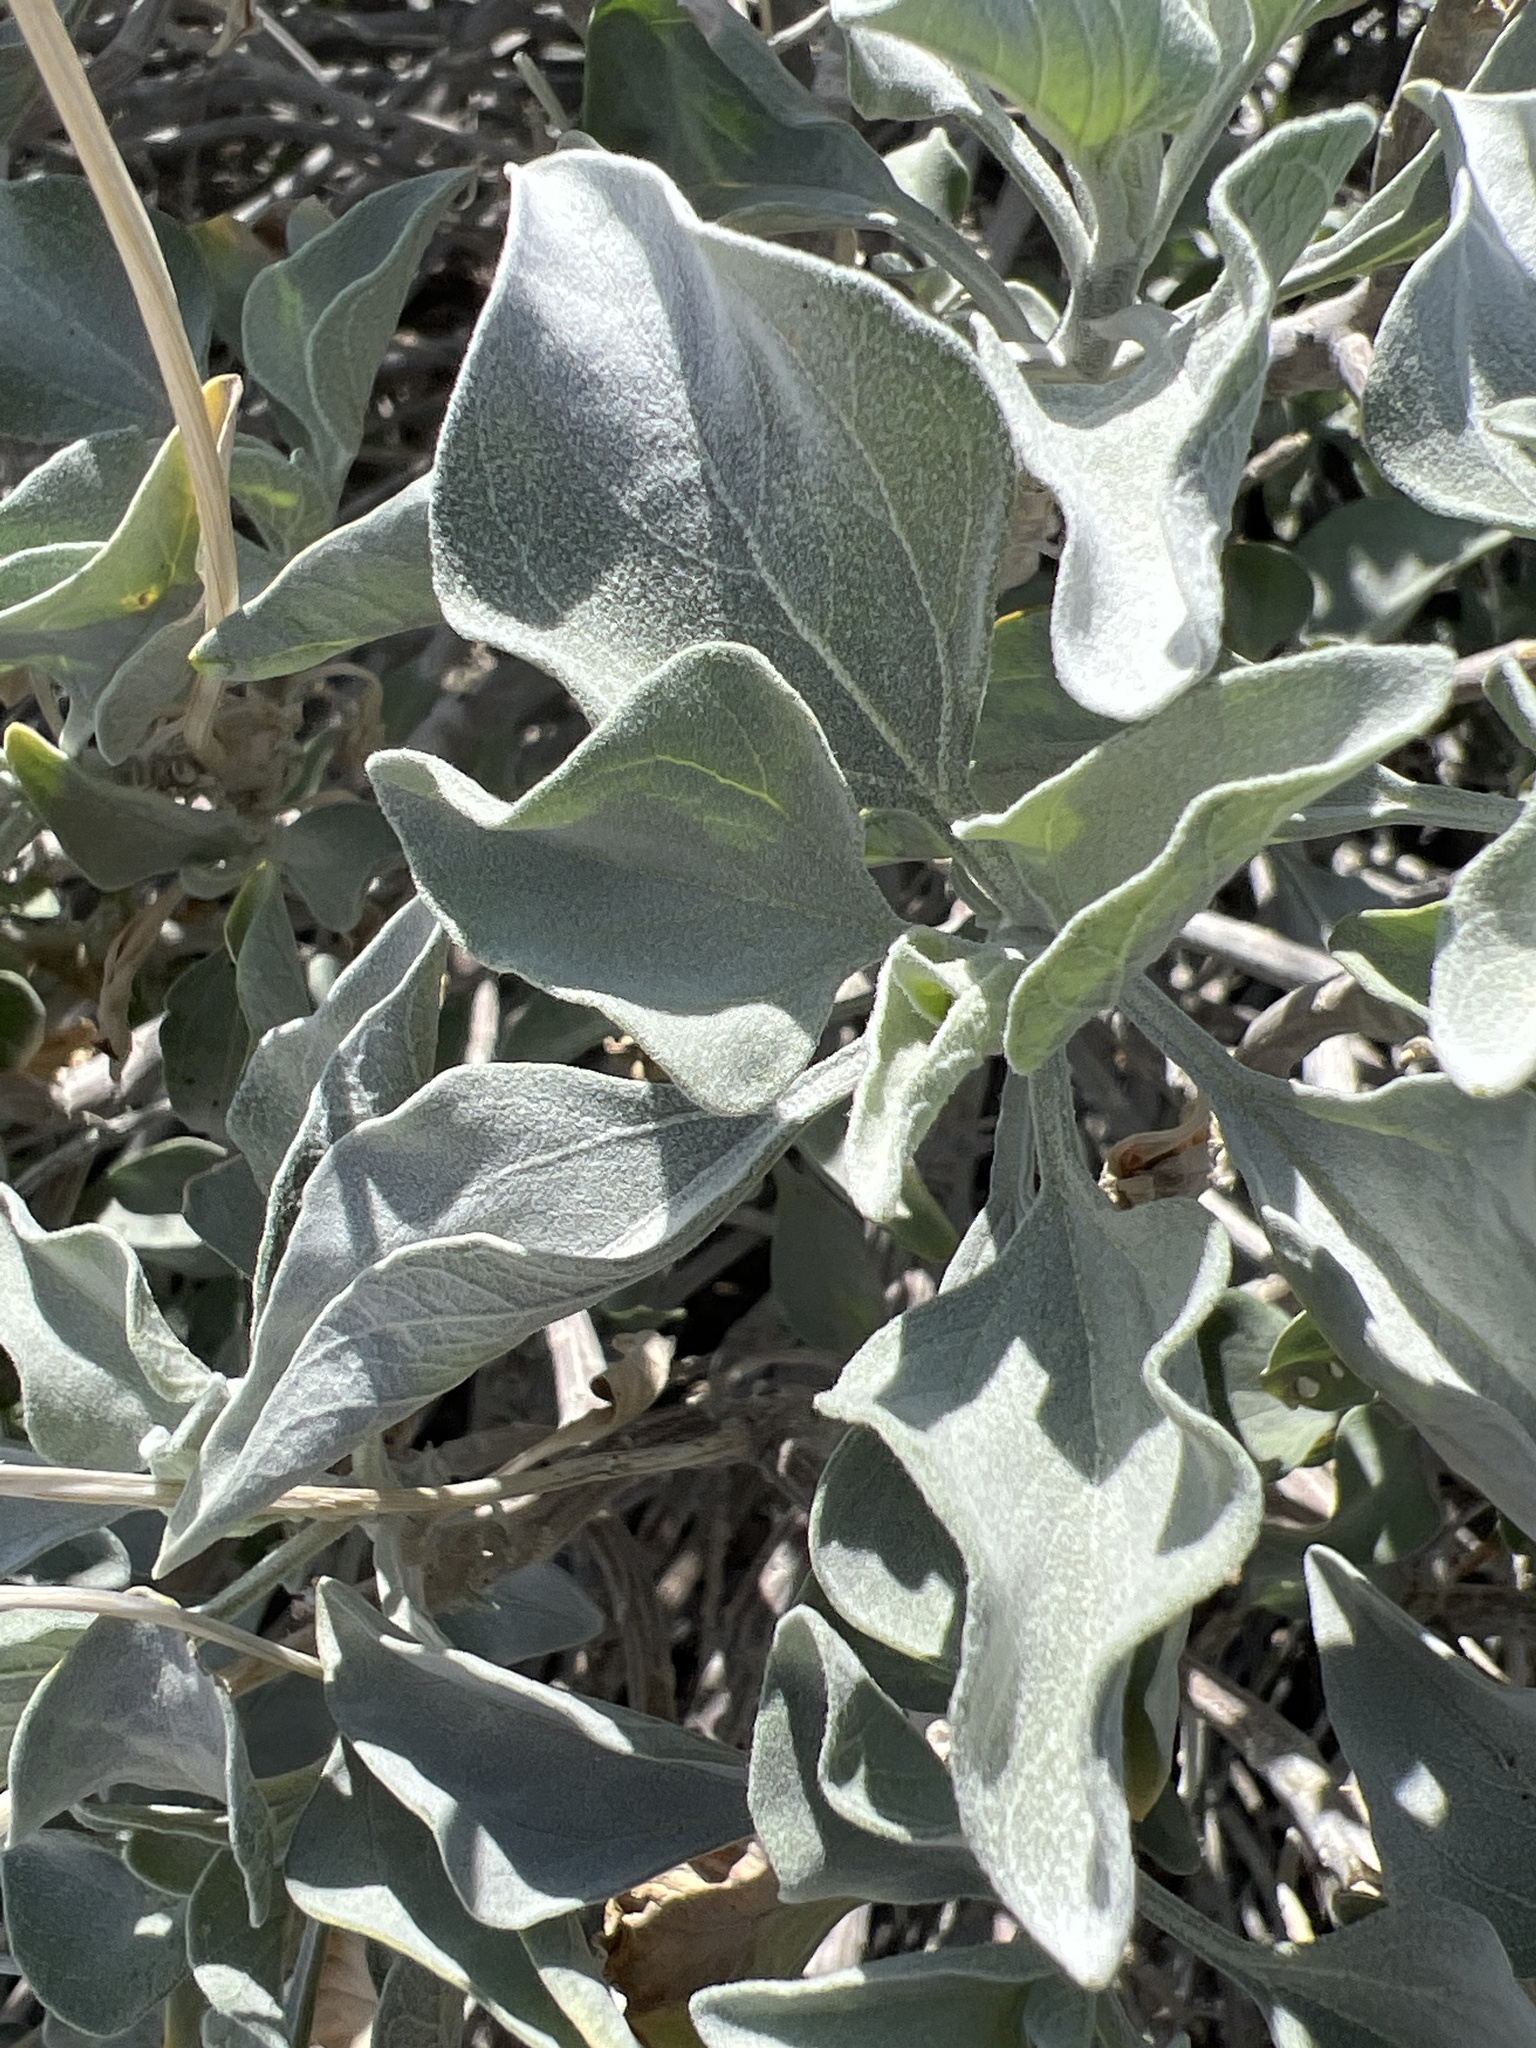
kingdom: Plantae
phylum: Tracheophyta
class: Magnoliopsida
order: Asterales
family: Asteraceae
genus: Encelia
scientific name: Encelia farinosa
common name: Brittlebush
